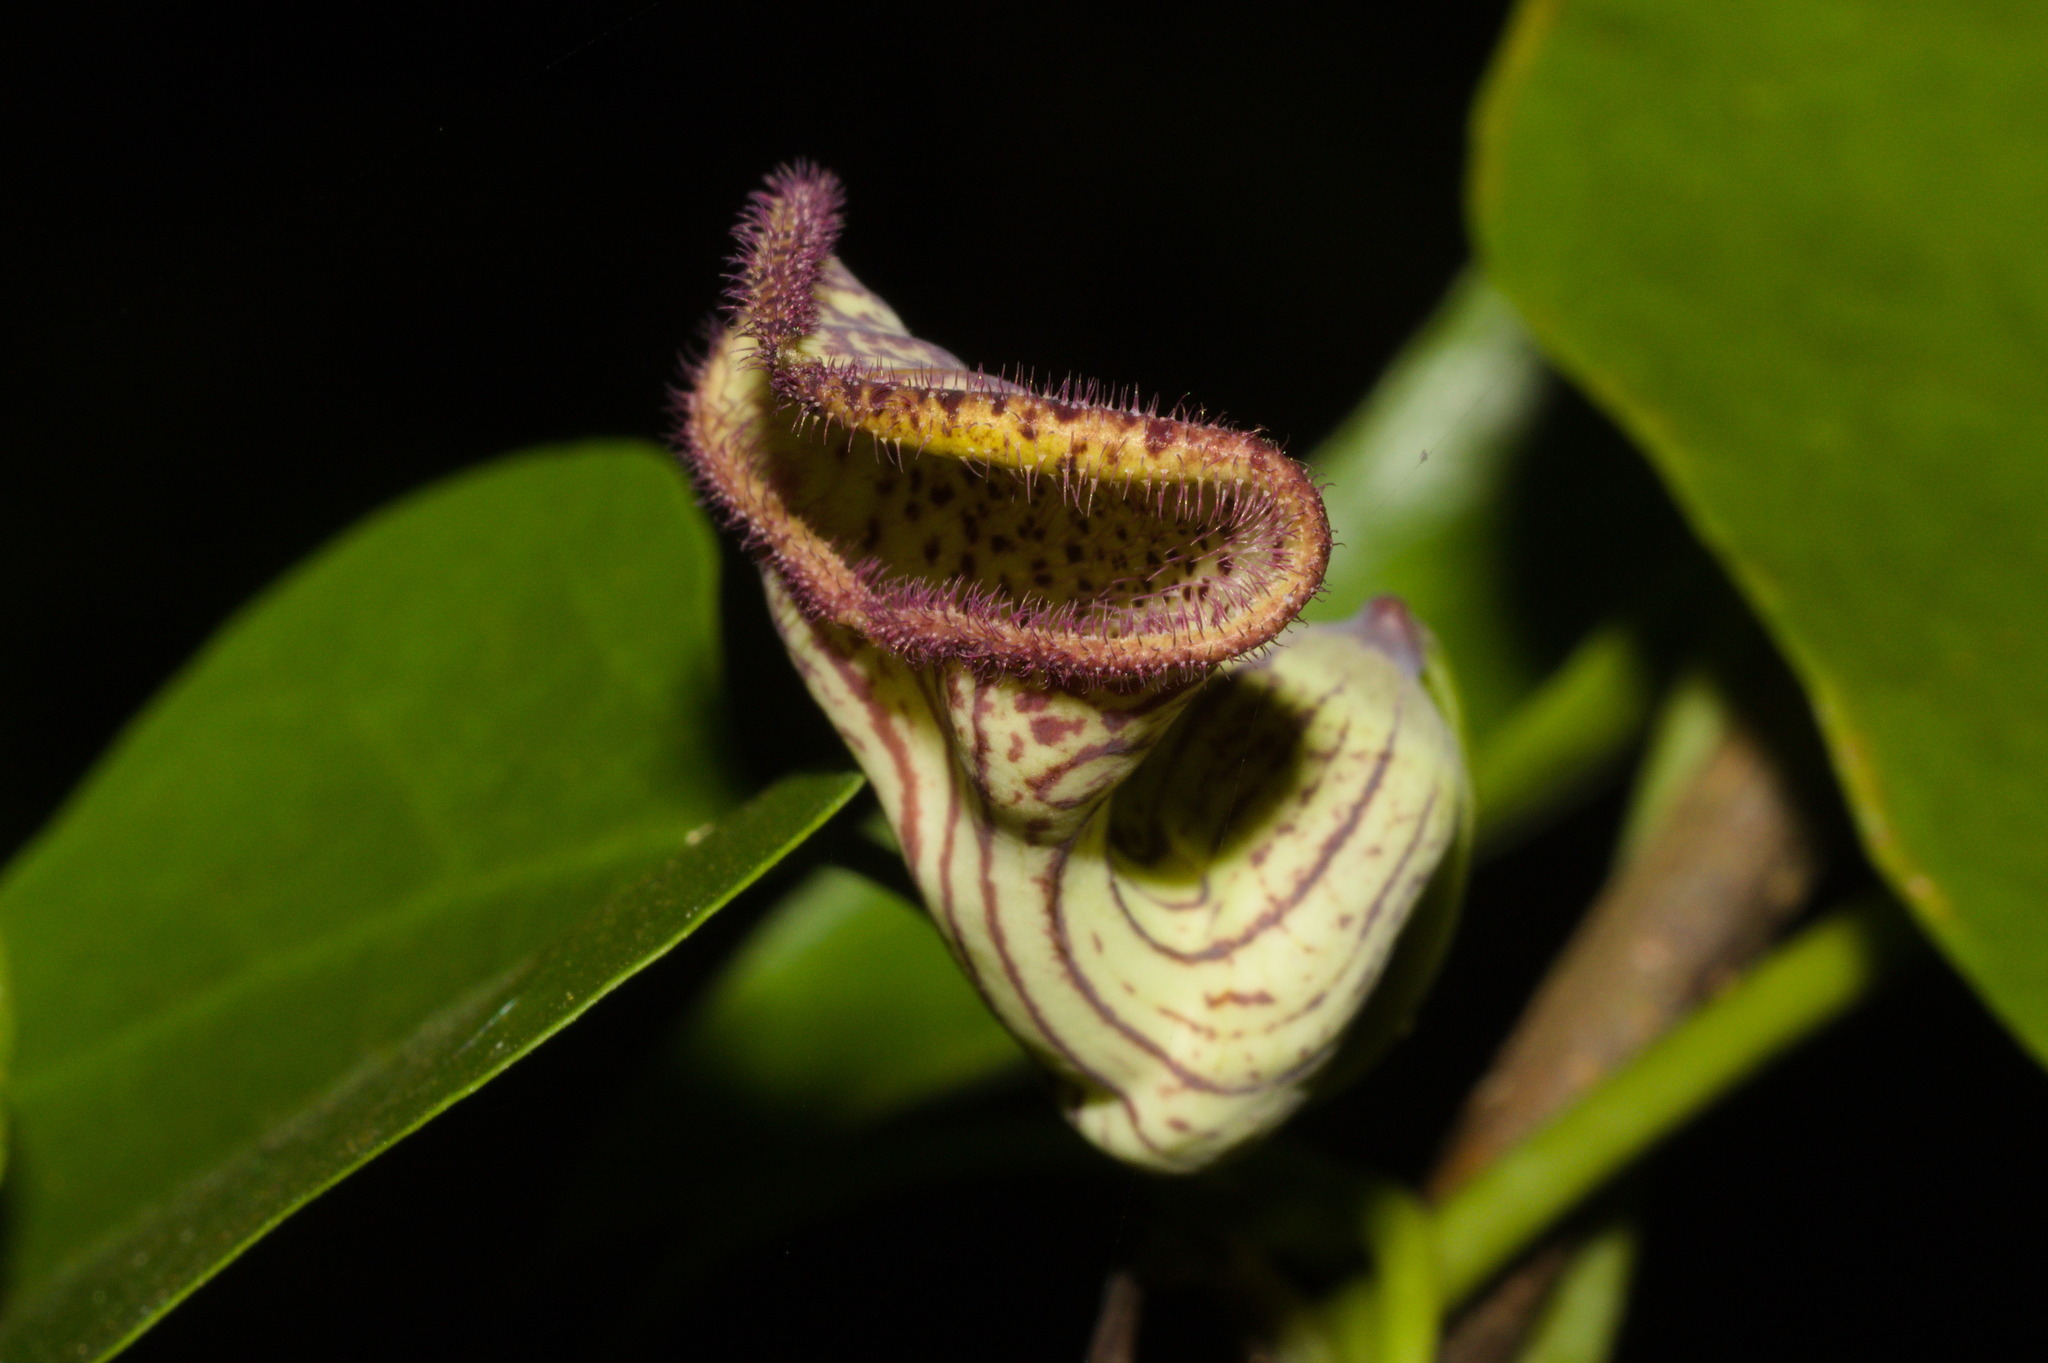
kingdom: Plantae
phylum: Tracheophyta
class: Magnoliopsida
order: Piperales
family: Aristolochiaceae
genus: Aristolochia
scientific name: Aristolochia triangularis
